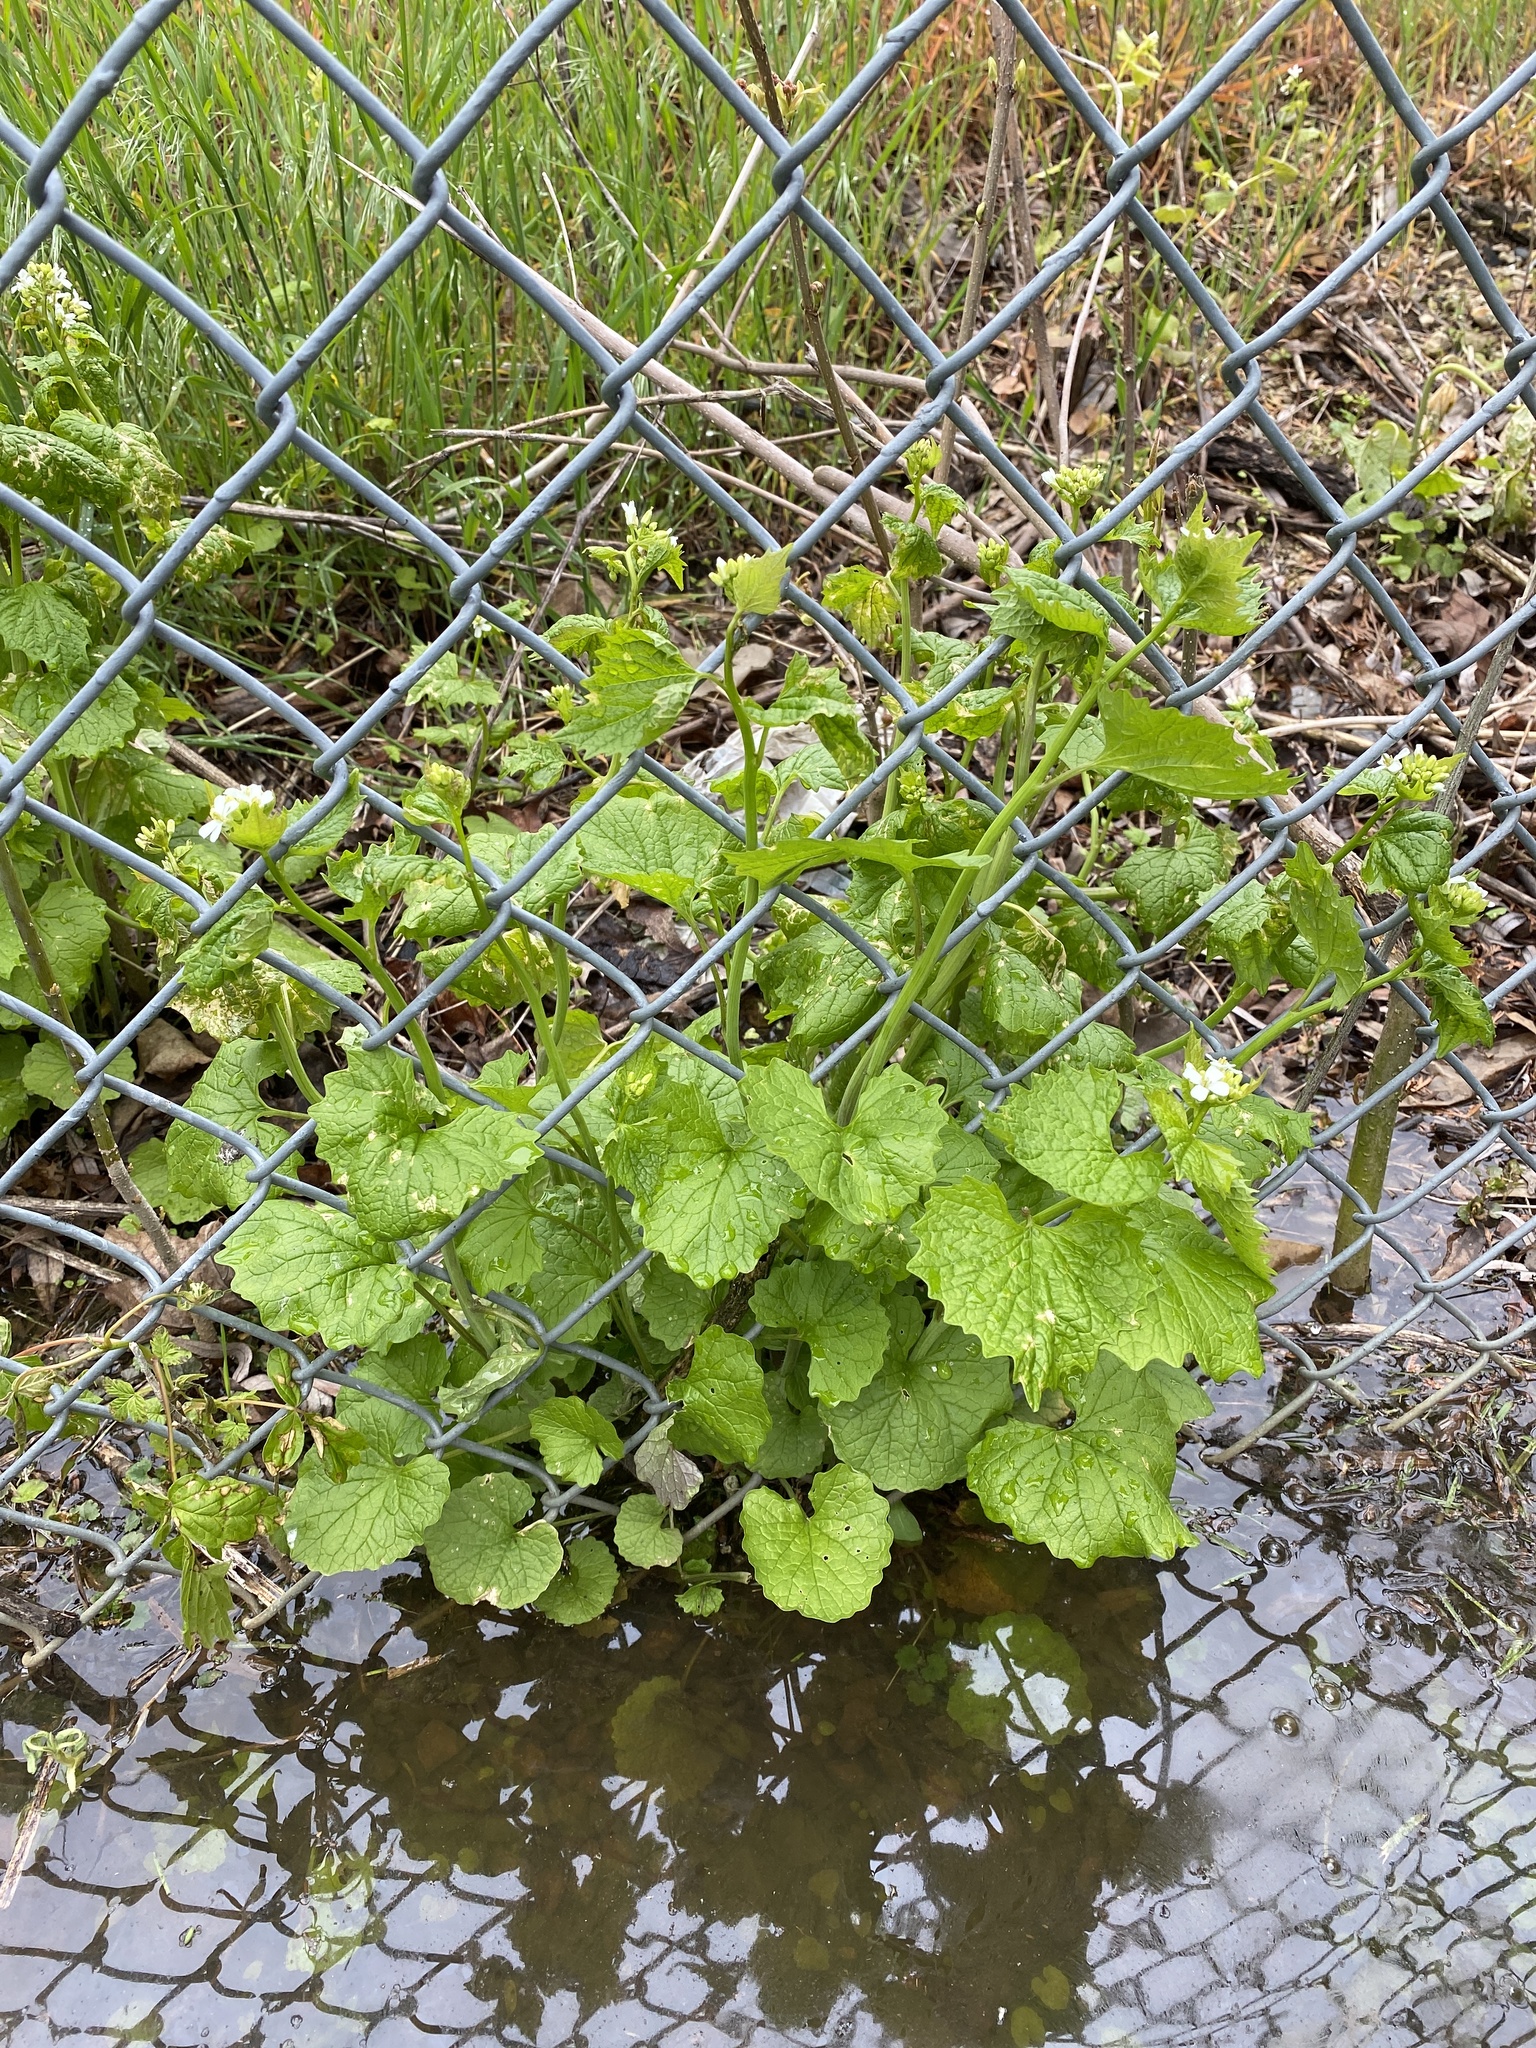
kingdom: Plantae
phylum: Tracheophyta
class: Magnoliopsida
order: Brassicales
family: Brassicaceae
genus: Alliaria
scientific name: Alliaria petiolata
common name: Garlic mustard
